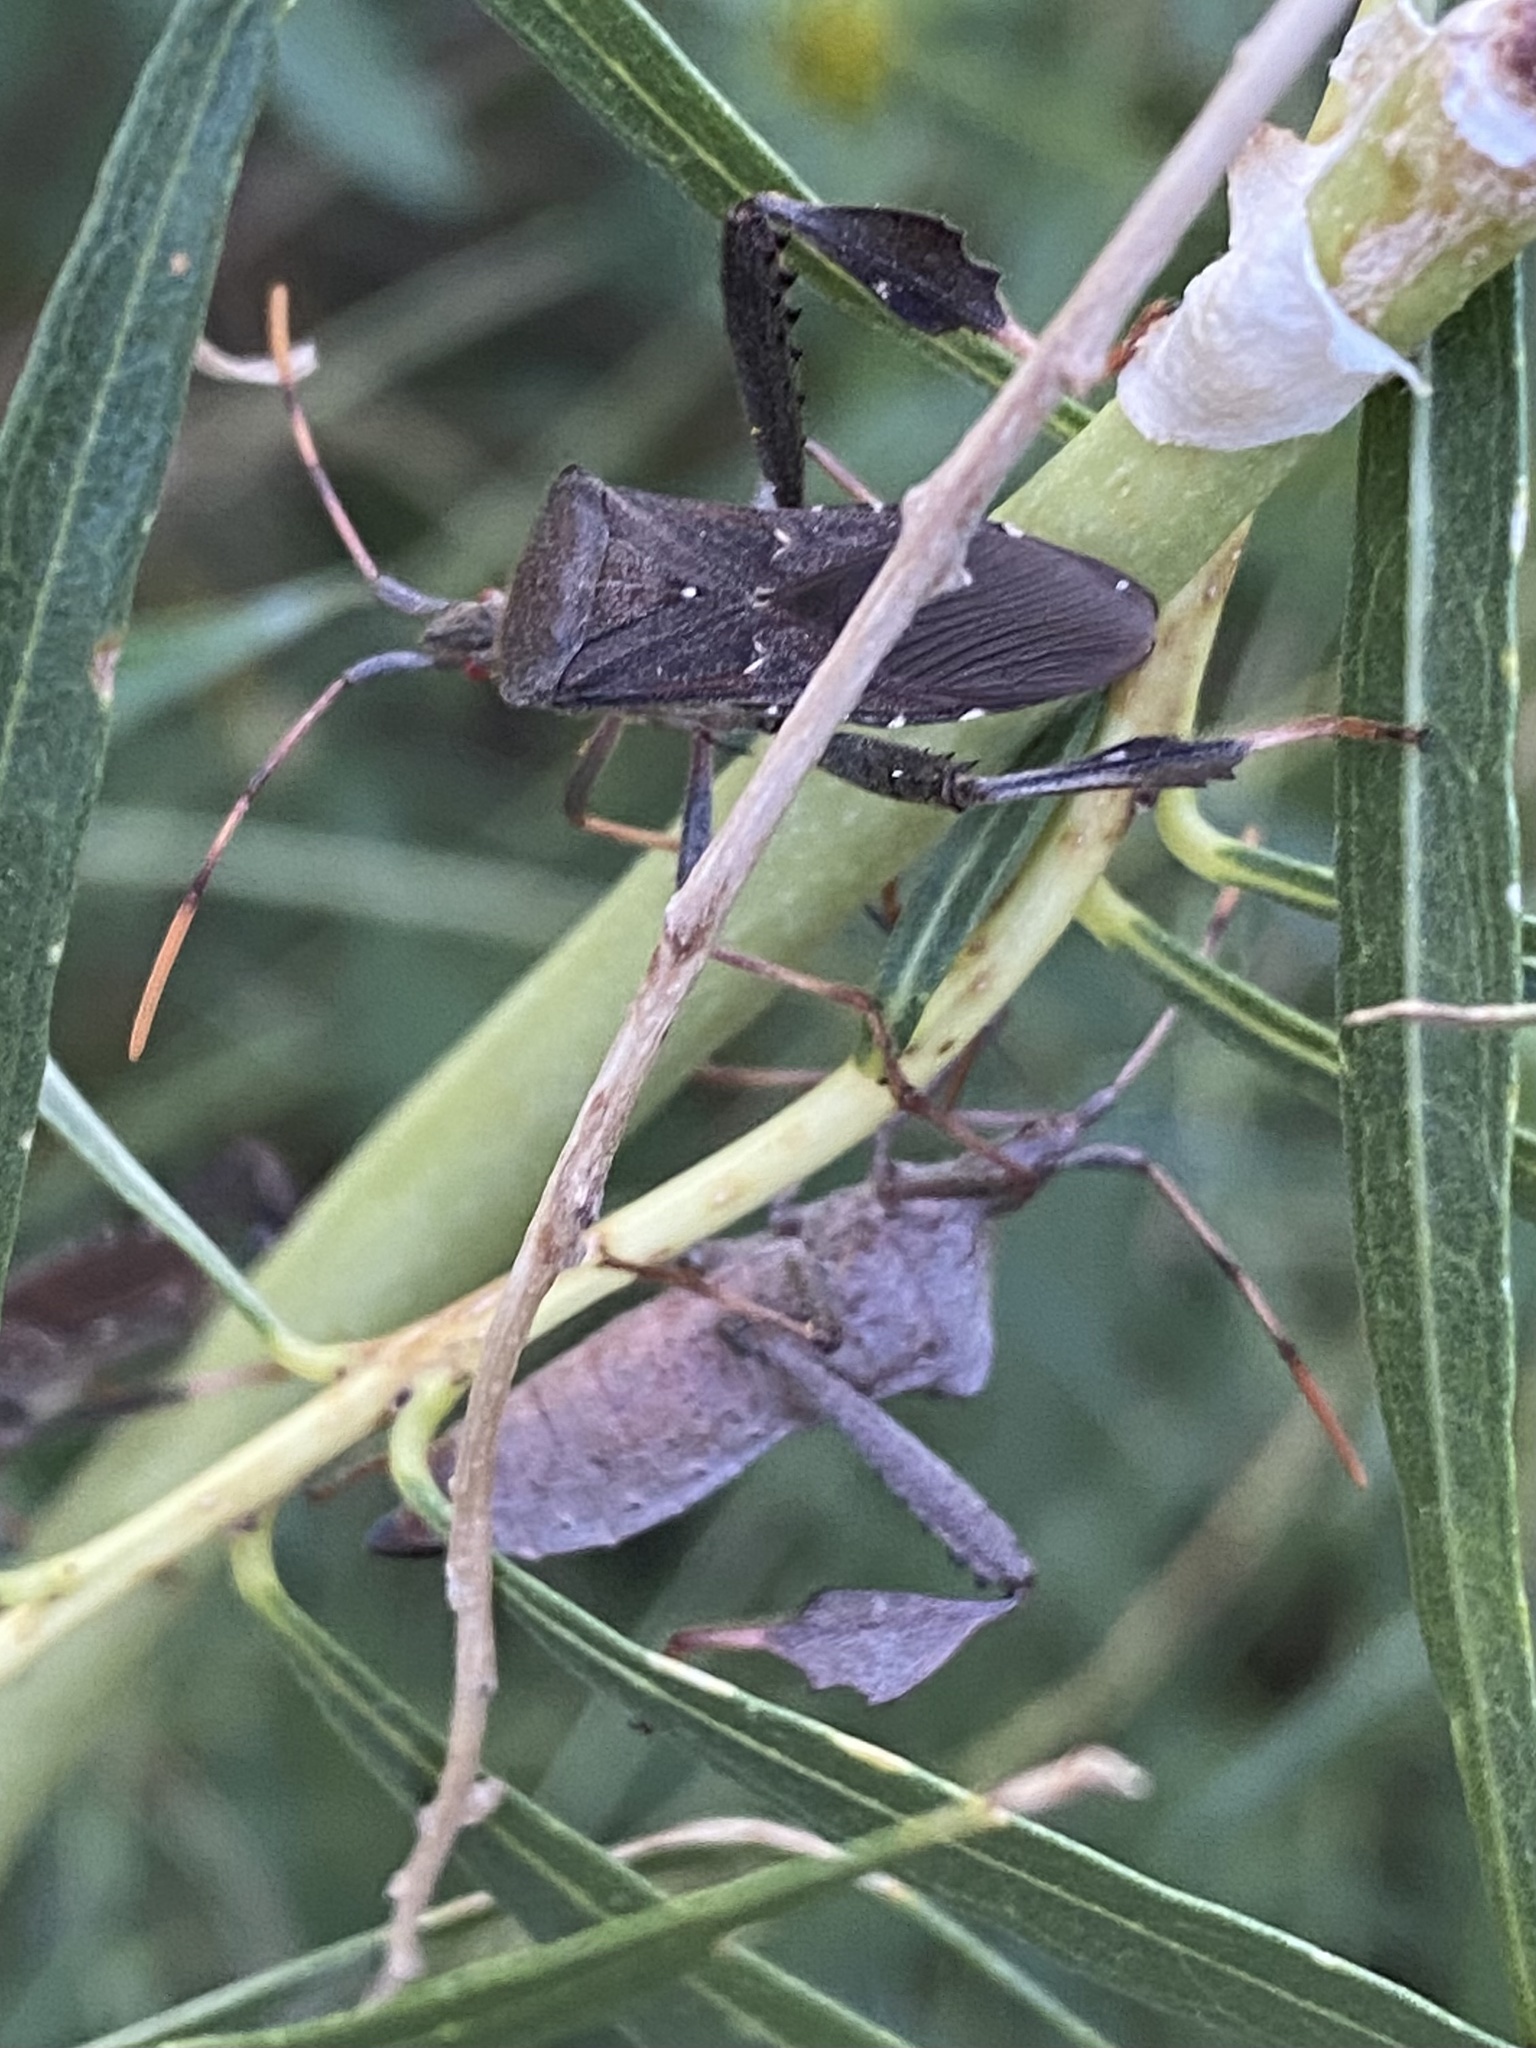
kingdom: Animalia
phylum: Arthropoda
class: Insecta
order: Lepidoptera
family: Geometridae
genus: Stigma
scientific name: Stigma
